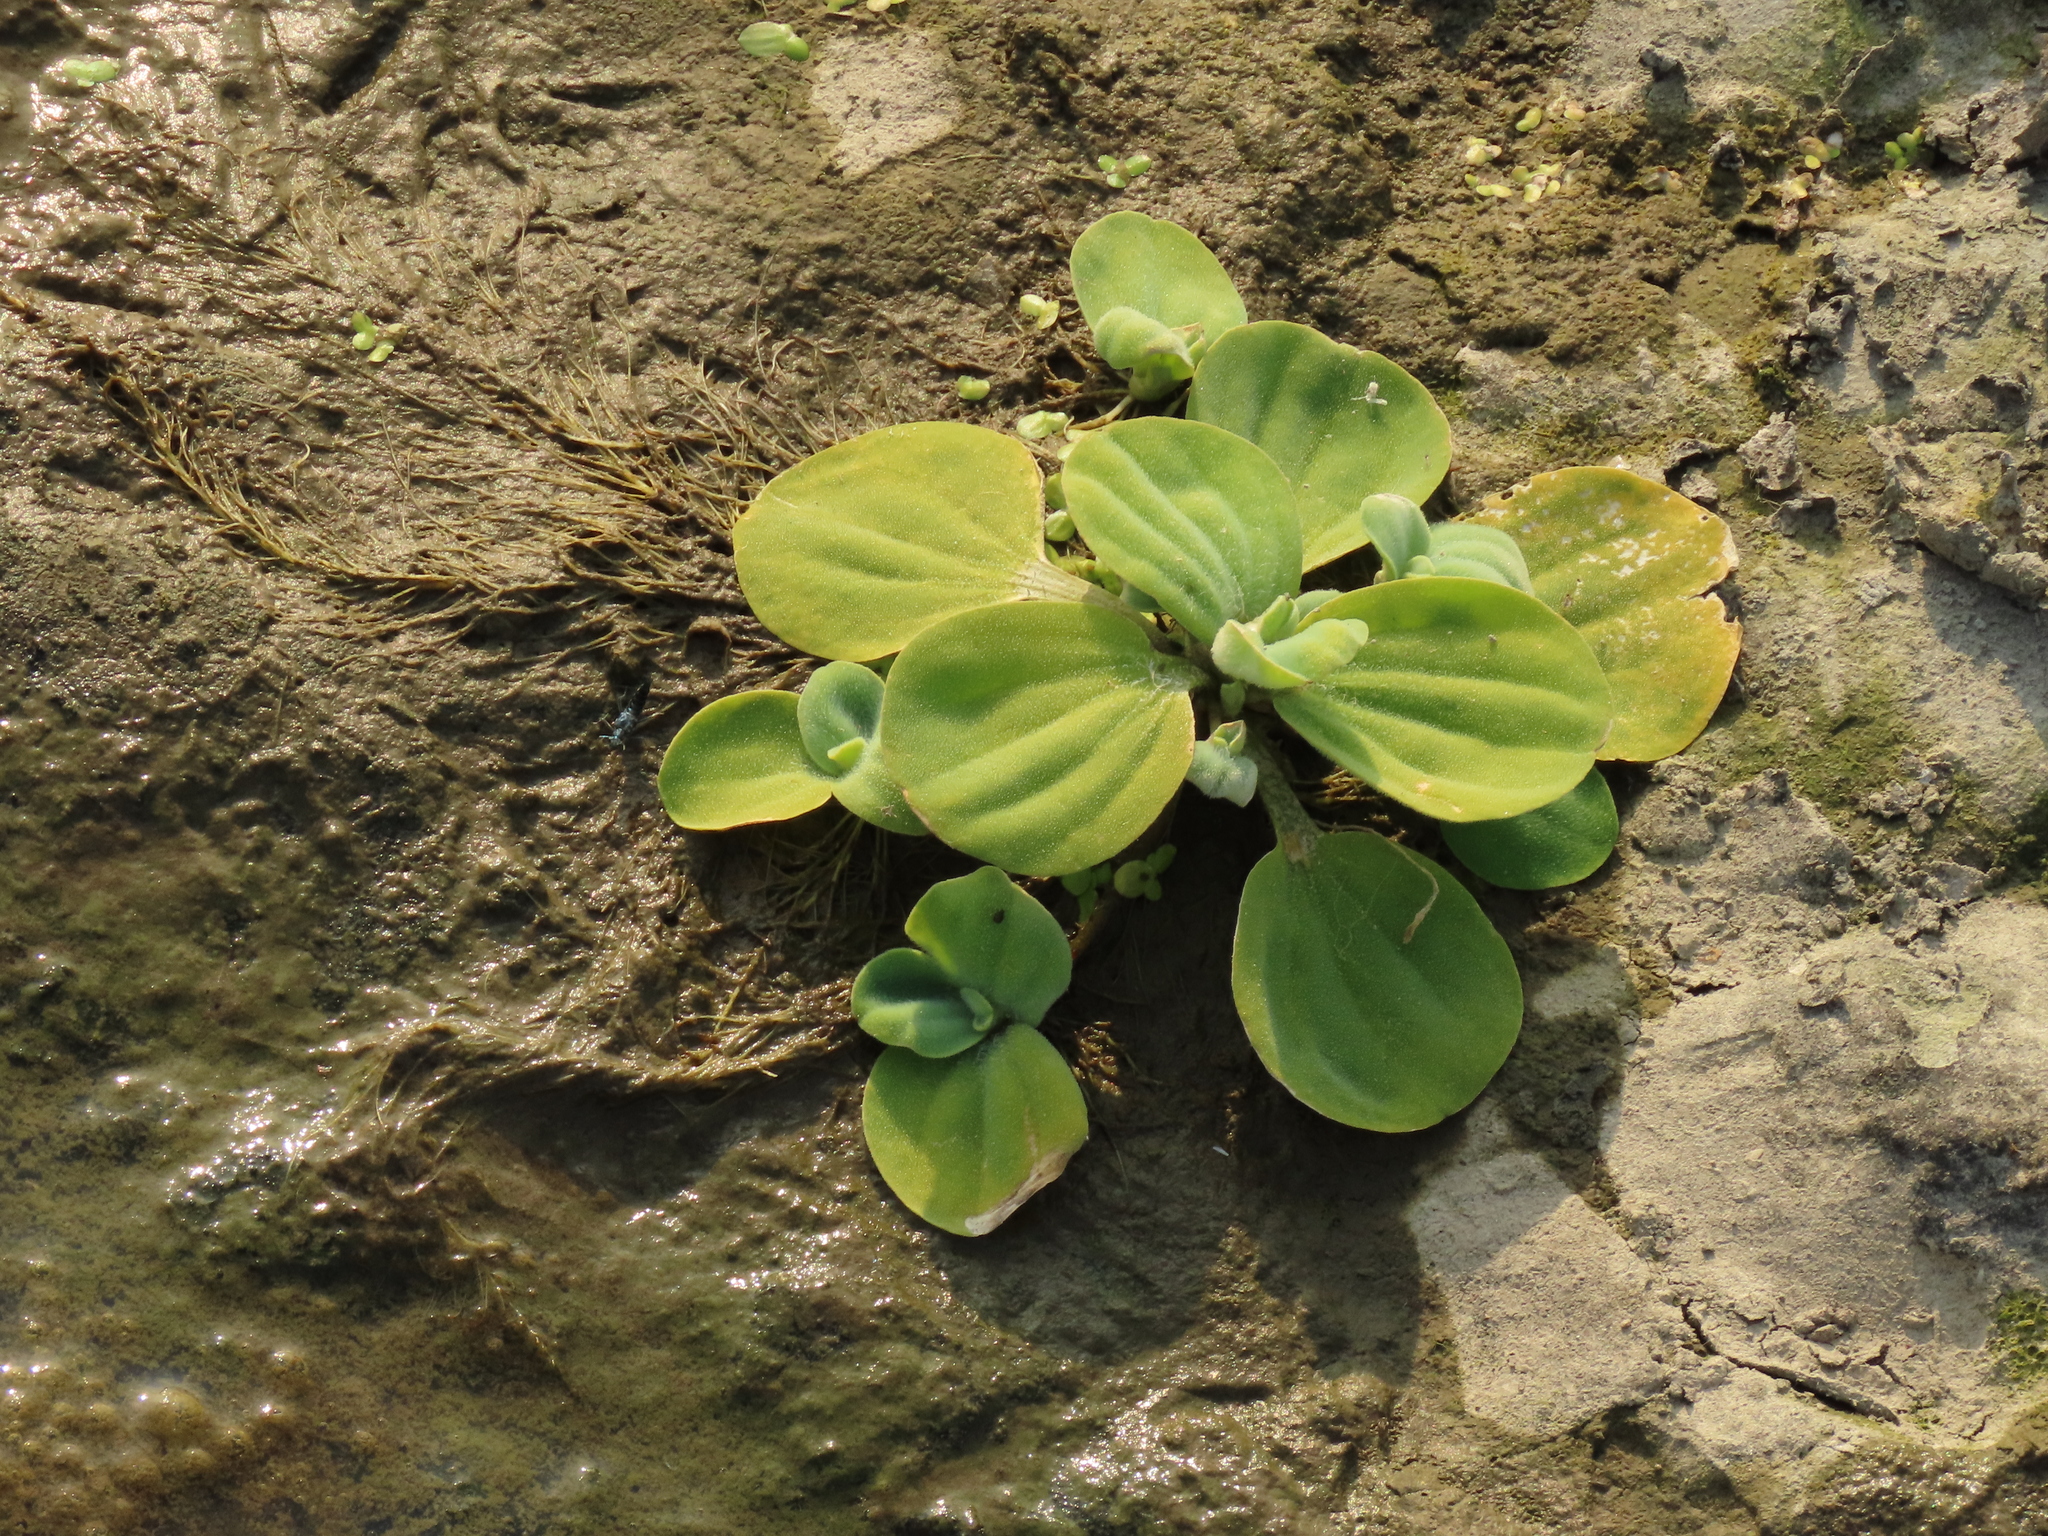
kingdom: Plantae
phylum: Tracheophyta
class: Liliopsida
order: Alismatales
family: Araceae
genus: Pistia
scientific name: Pistia stratiotes
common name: Water lettuce
